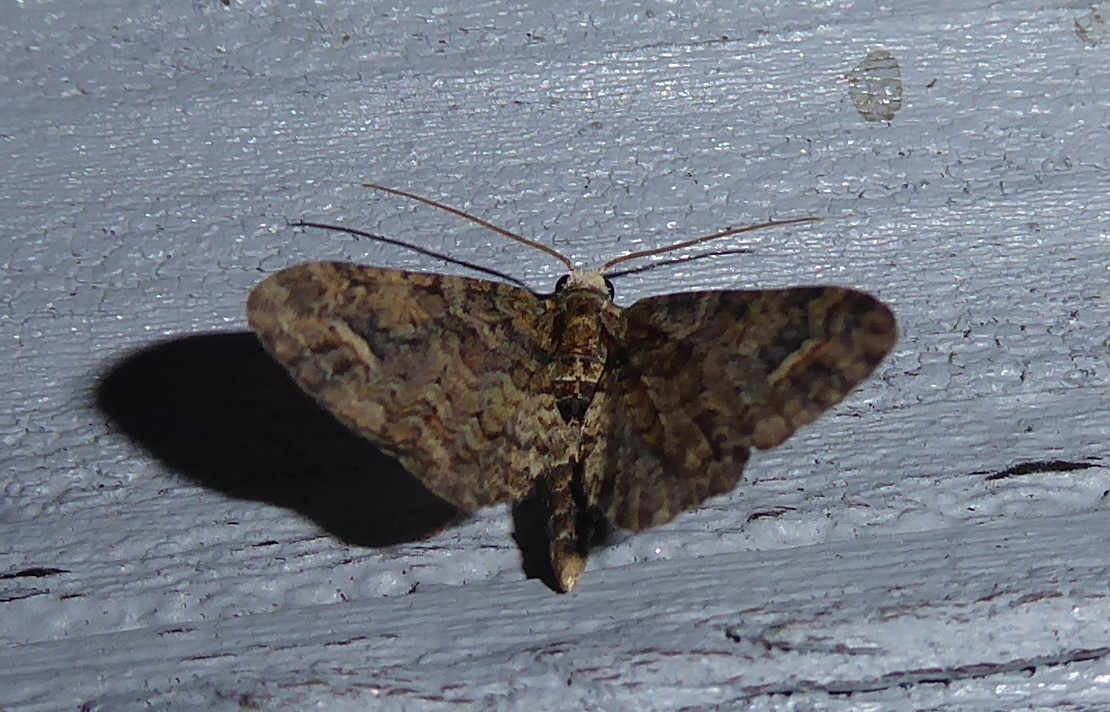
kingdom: Animalia
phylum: Arthropoda
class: Insecta
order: Lepidoptera
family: Geometridae
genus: Idaea
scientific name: Idaea mutanda
